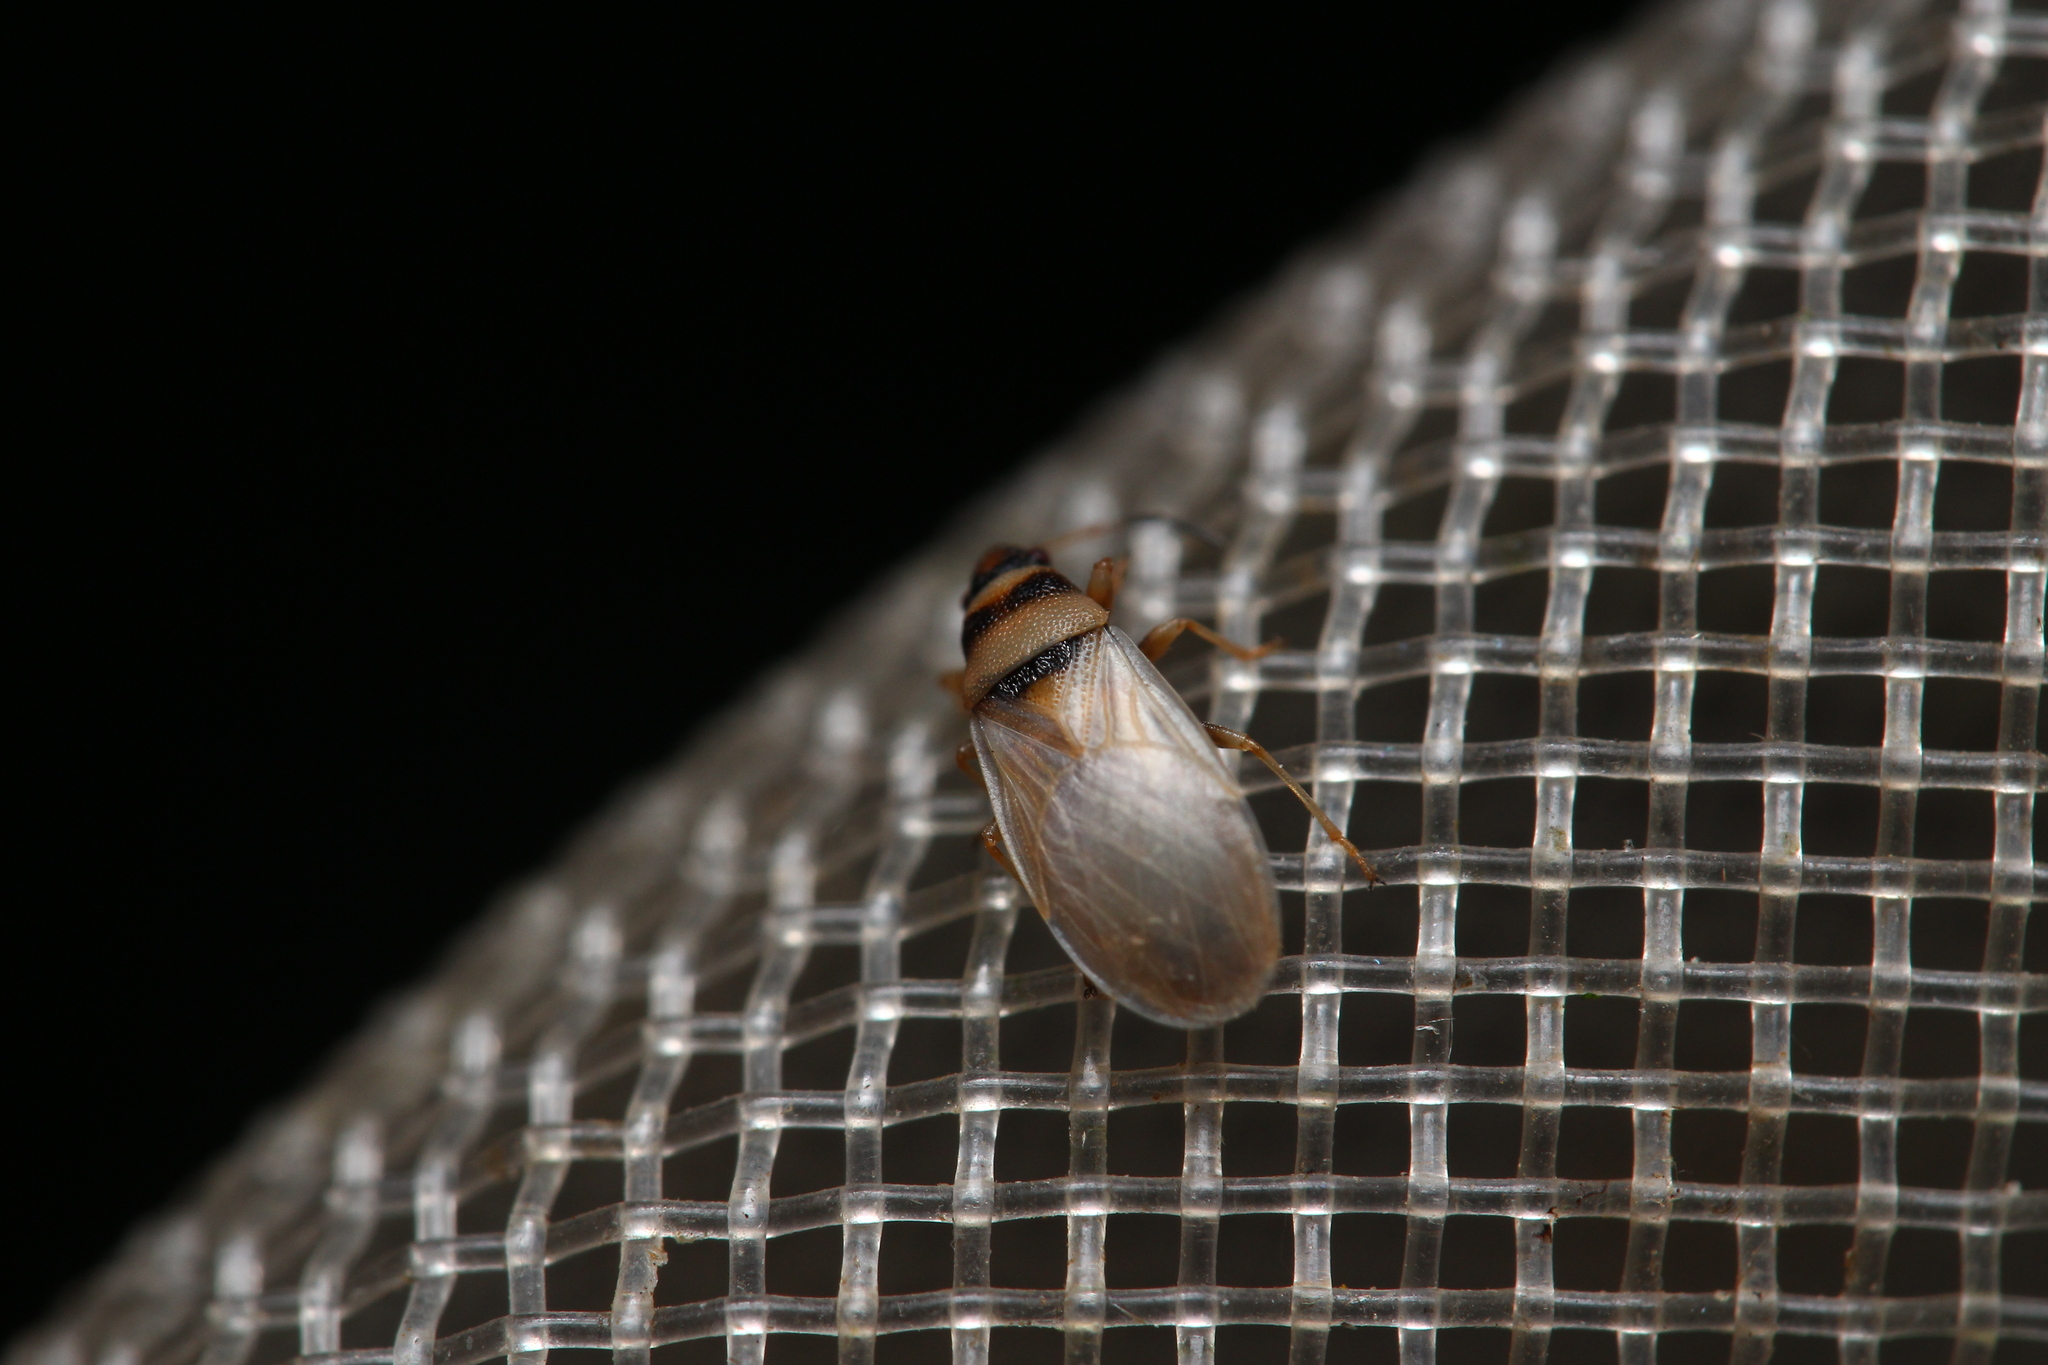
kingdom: Animalia
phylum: Arthropoda
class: Insecta
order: Hemiptera
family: Oxycarenidae
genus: Oxycarenus
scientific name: Oxycarenus pallens
